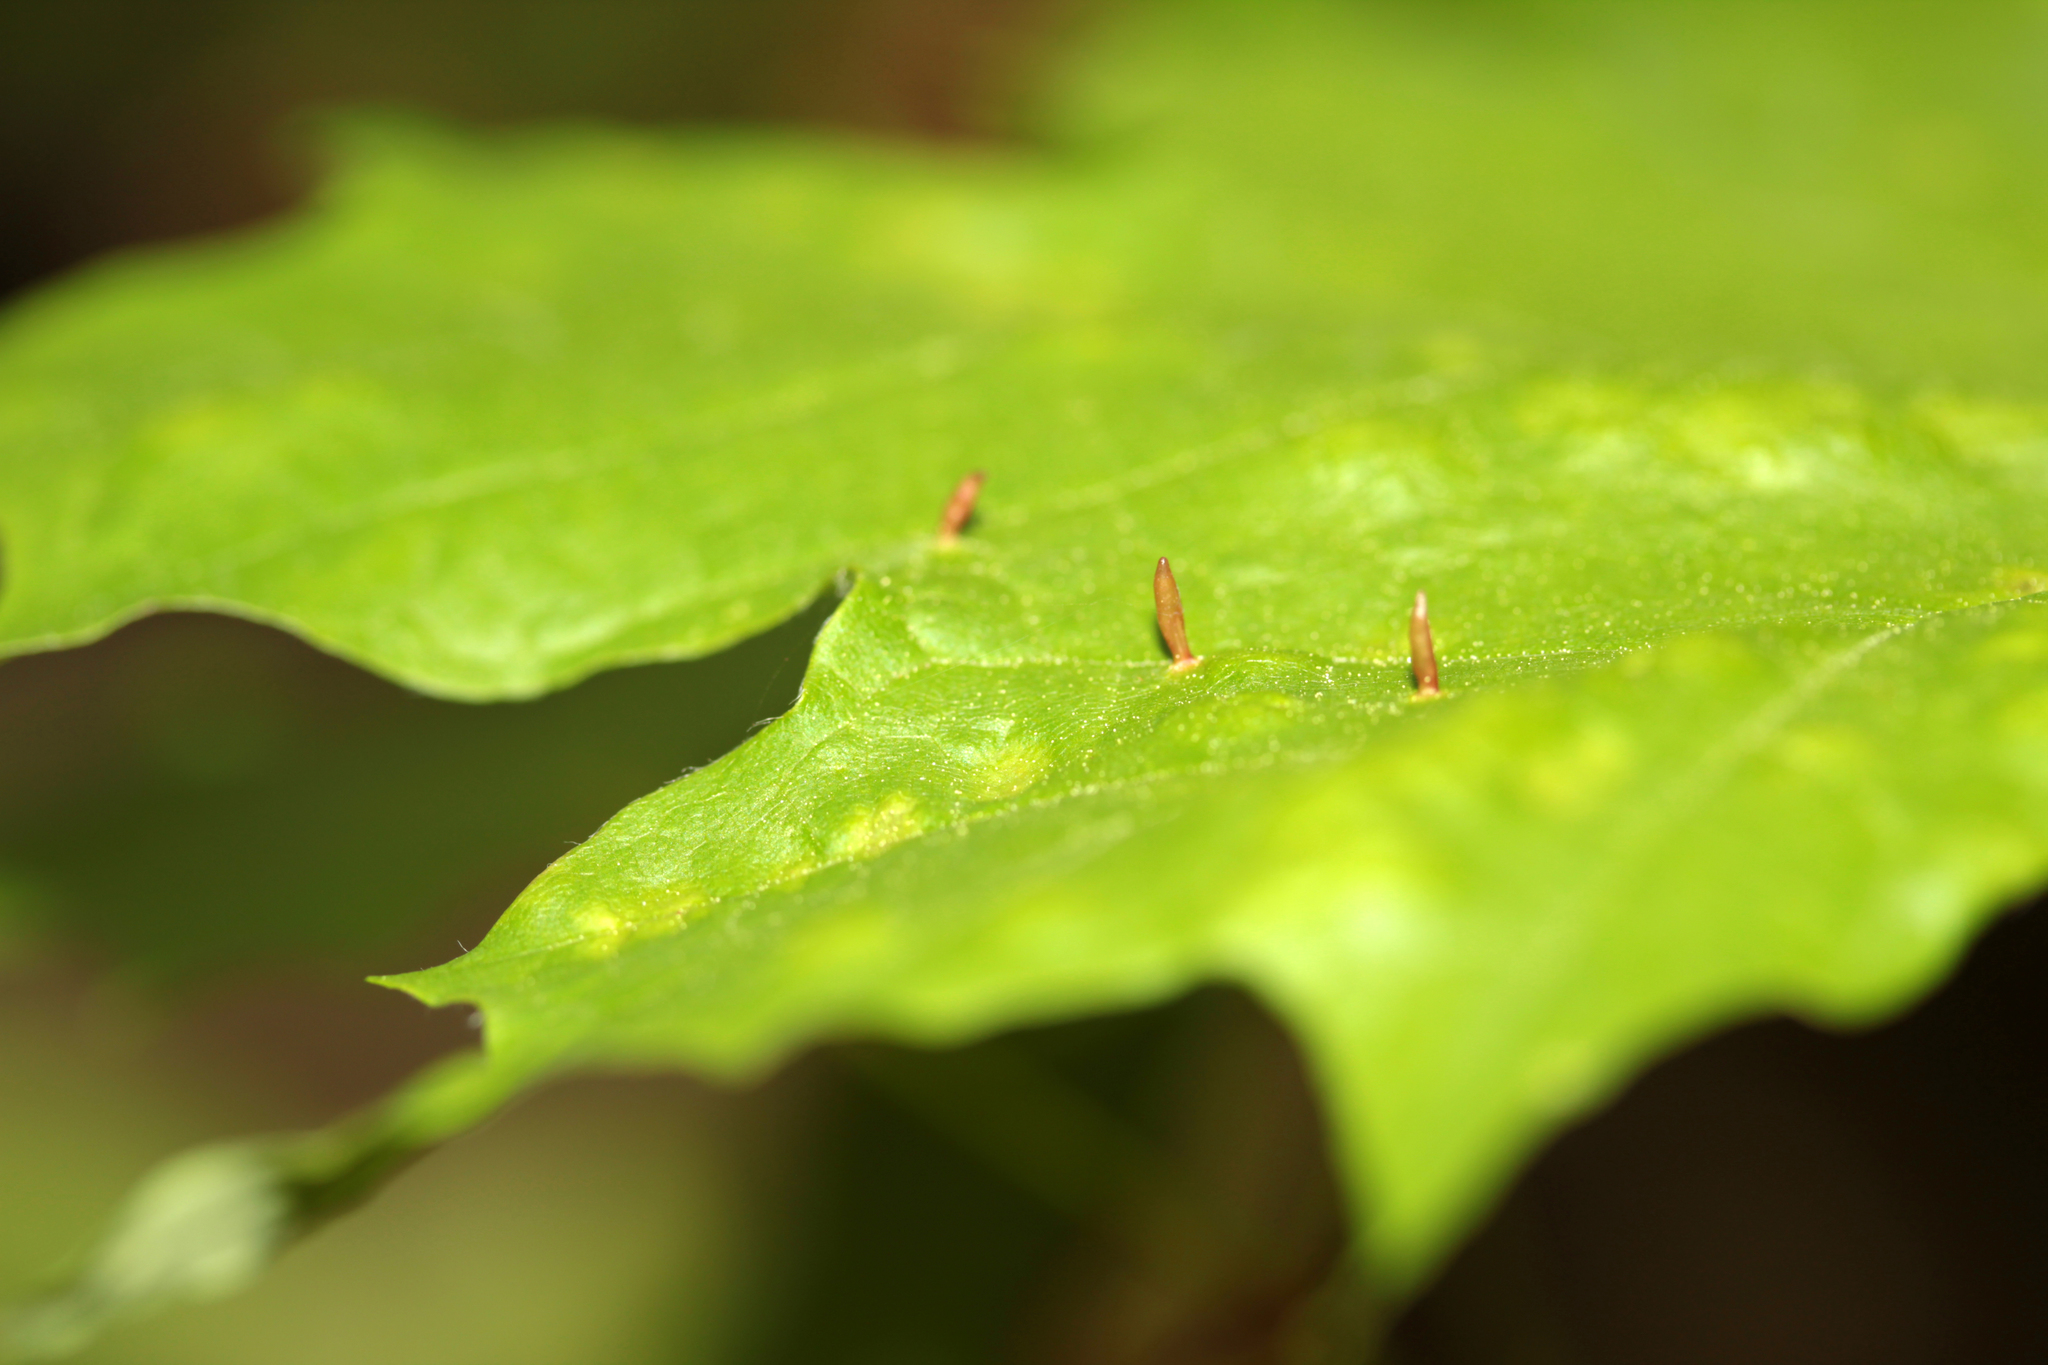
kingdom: Animalia
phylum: Arthropoda
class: Arachnida
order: Trombidiformes
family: Eriophyidae
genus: Vasates
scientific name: Vasates aceriscrumena
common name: Maple spindle gall mite
